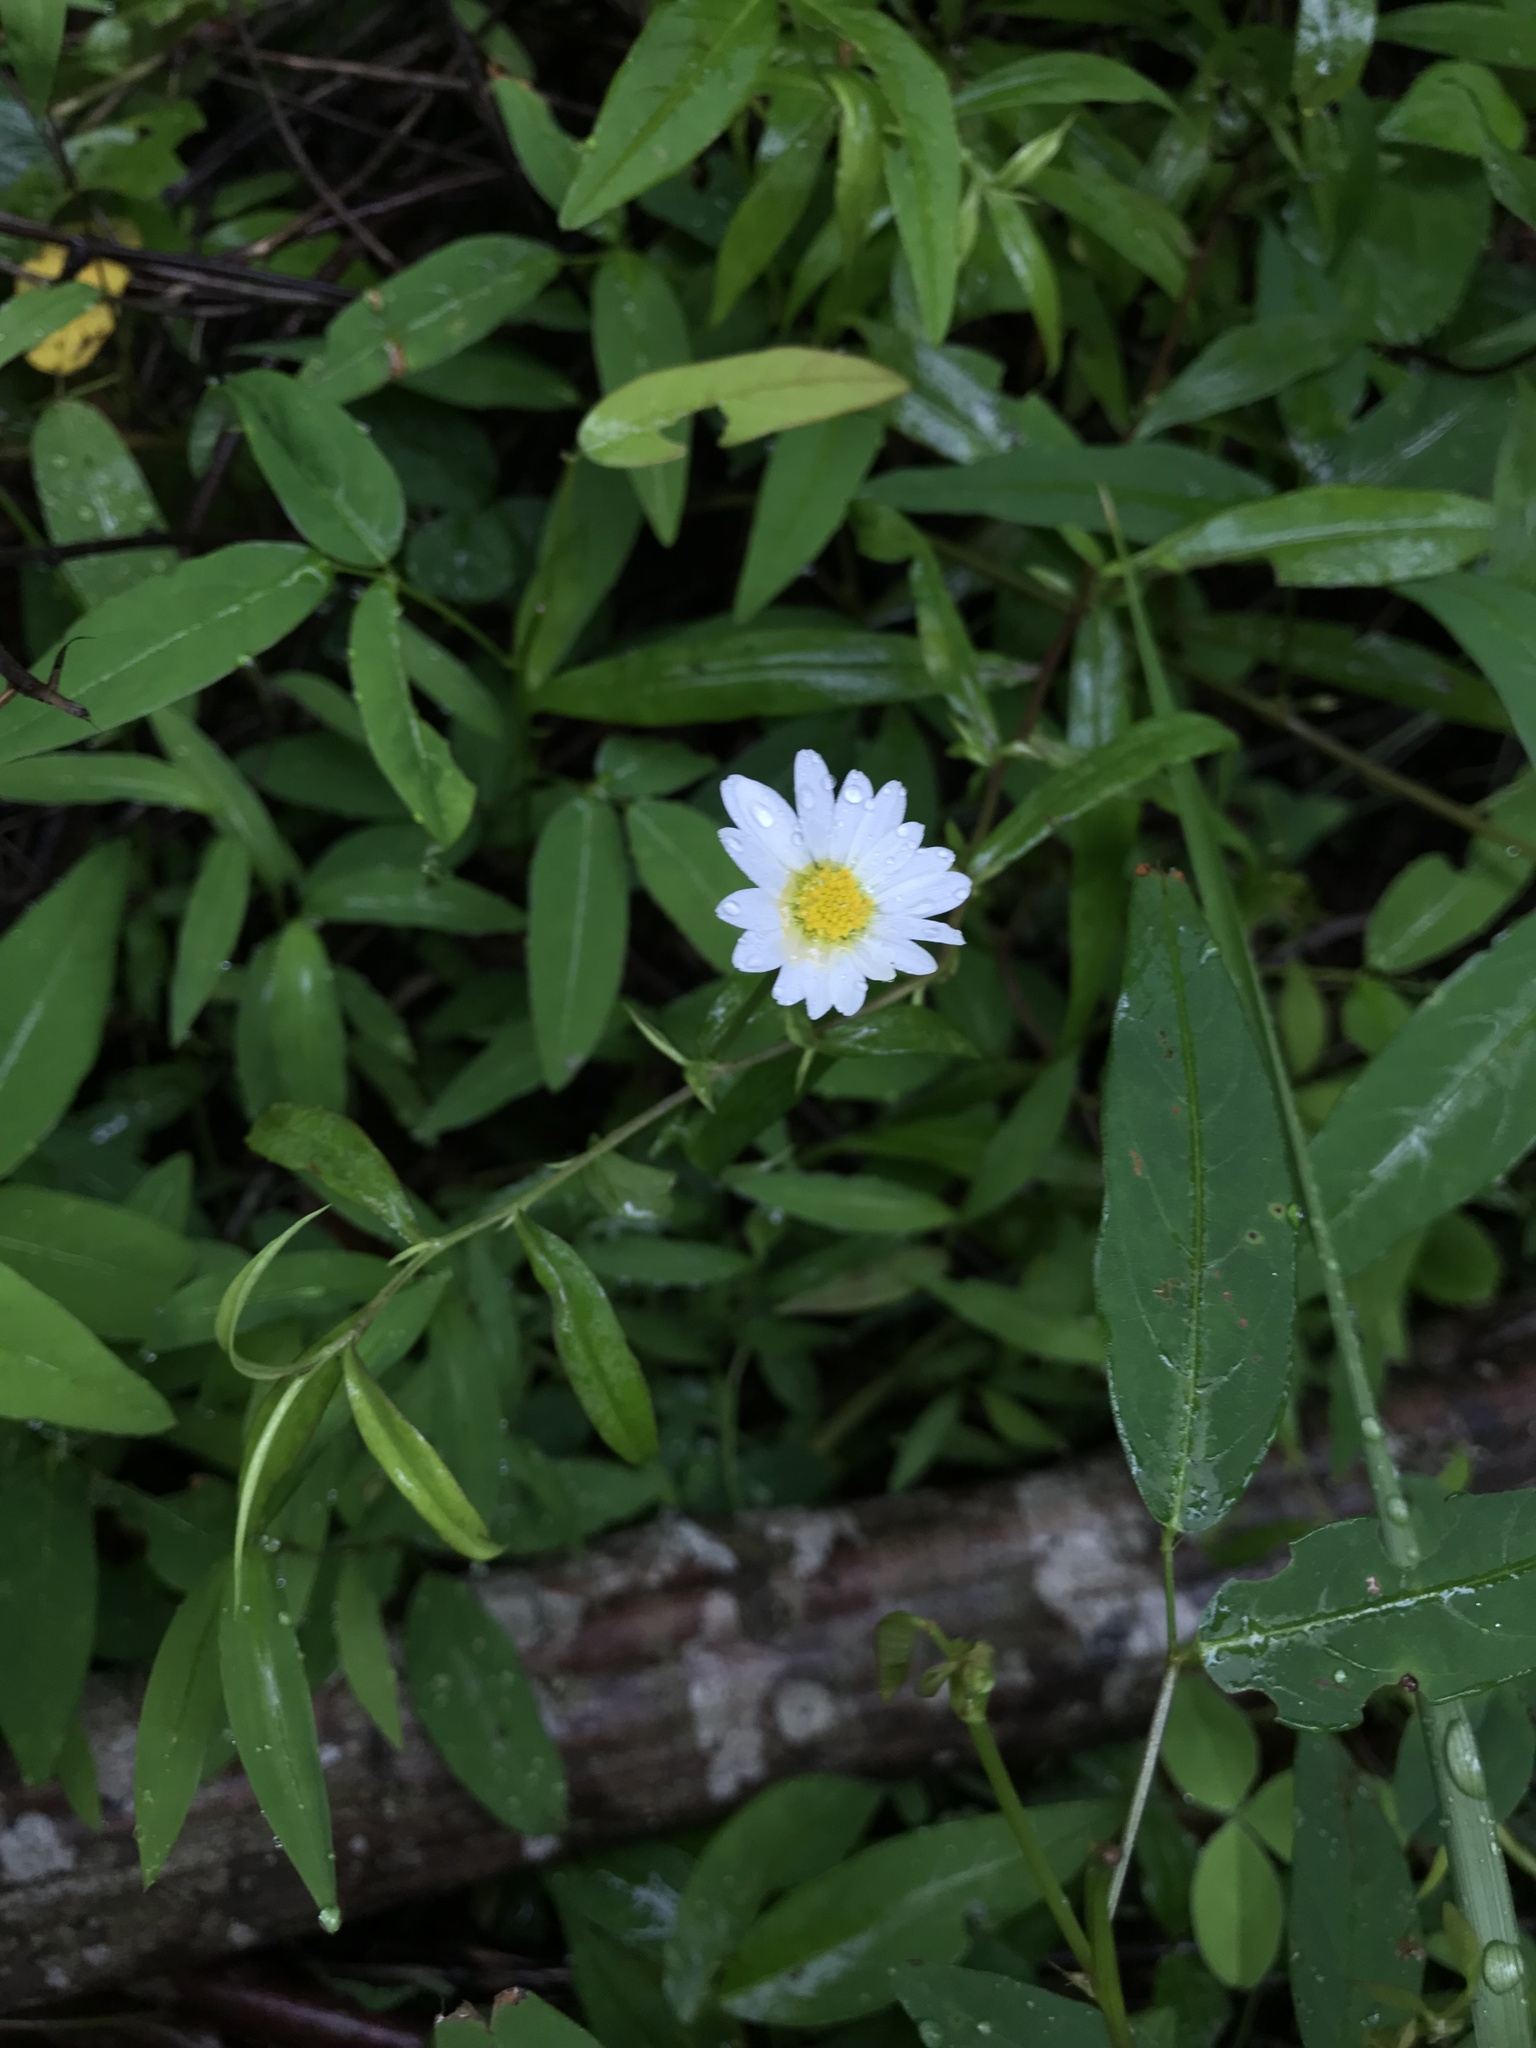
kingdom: Plantae
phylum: Tracheophyta
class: Magnoliopsida
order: Asterales
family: Asteraceae
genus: Leucanthemum
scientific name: Leucanthemum vulgare
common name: Oxeye daisy
